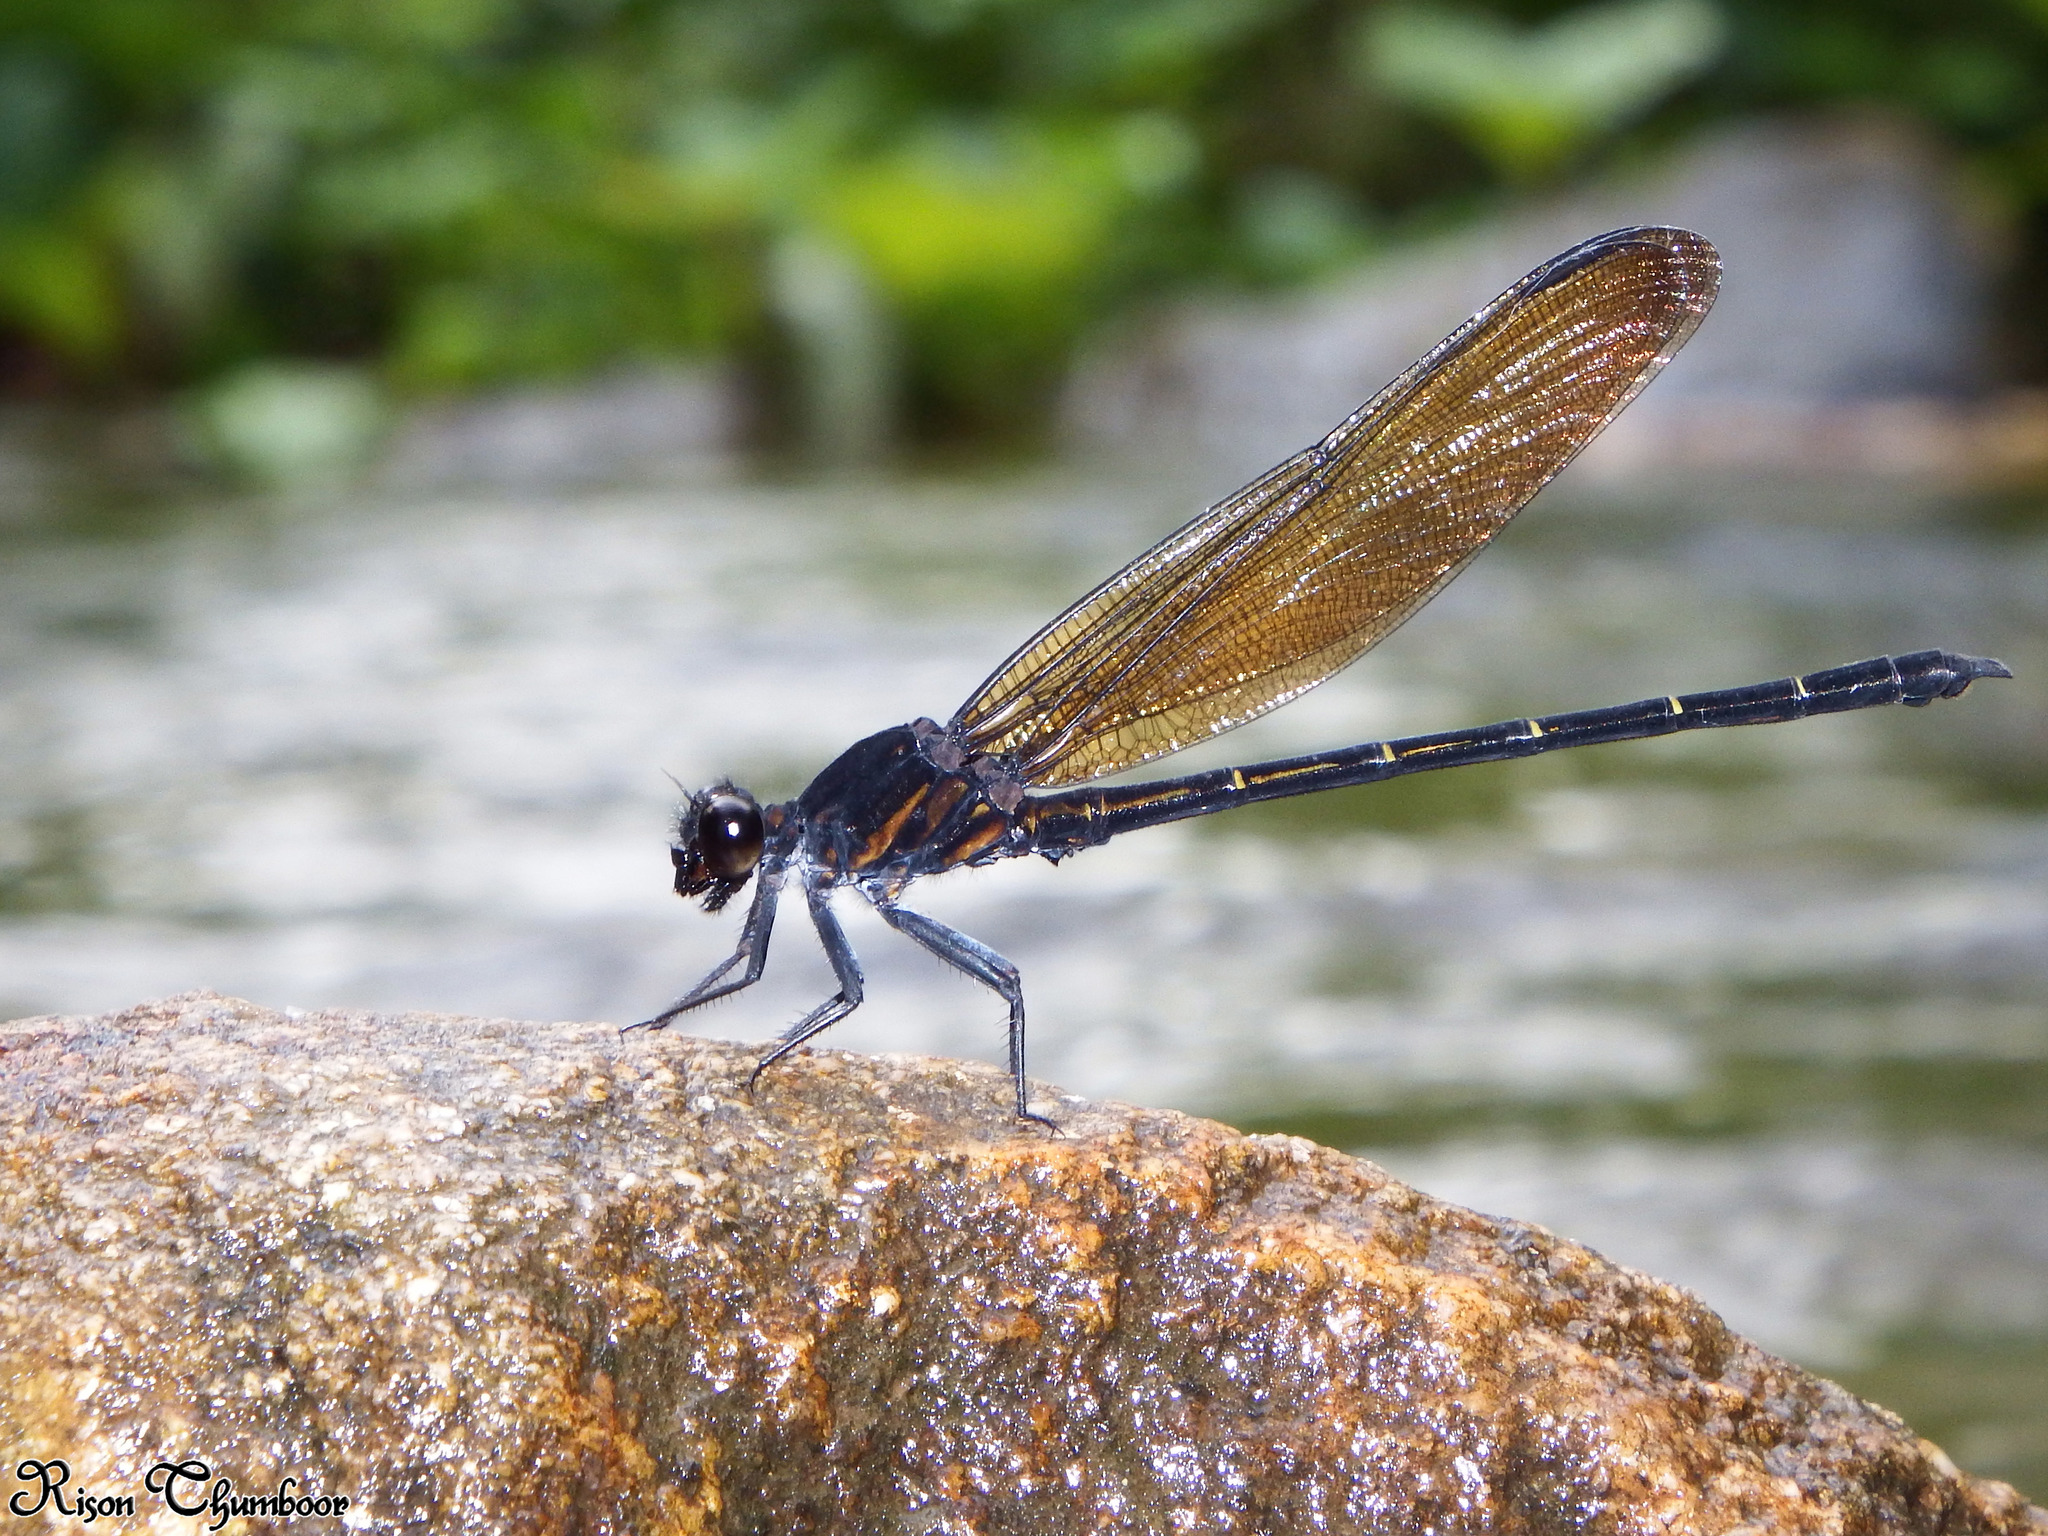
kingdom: Animalia
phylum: Arthropoda
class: Insecta
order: Odonata
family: Euphaeidae
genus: Dysphaea
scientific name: Dysphaea ethela
